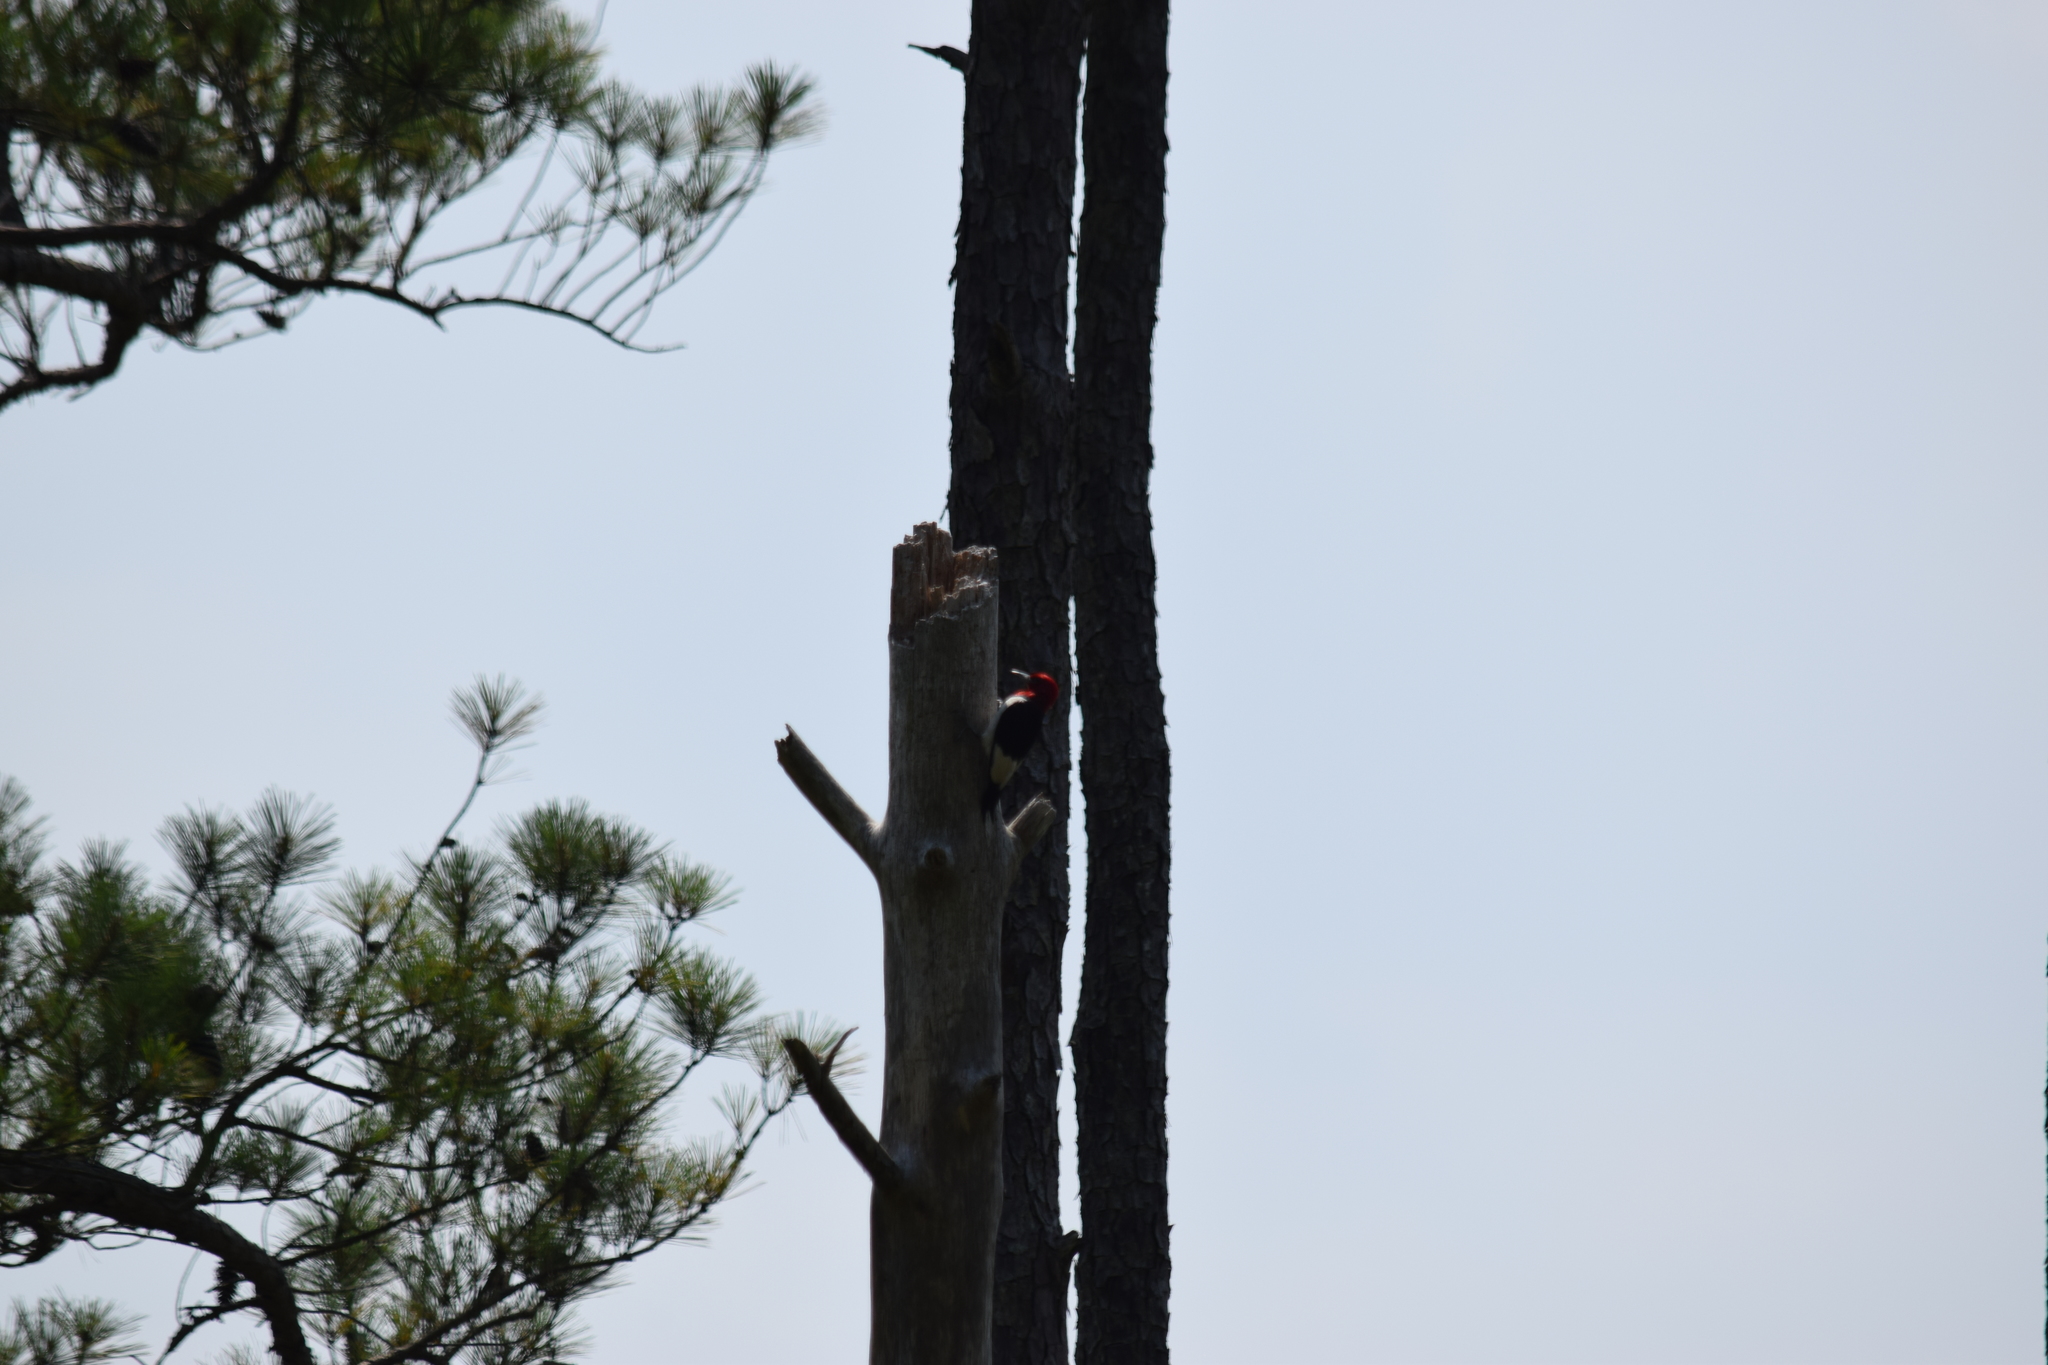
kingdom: Animalia
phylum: Chordata
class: Aves
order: Piciformes
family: Picidae
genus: Melanerpes
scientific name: Melanerpes erythrocephalus
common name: Red-headed woodpecker
